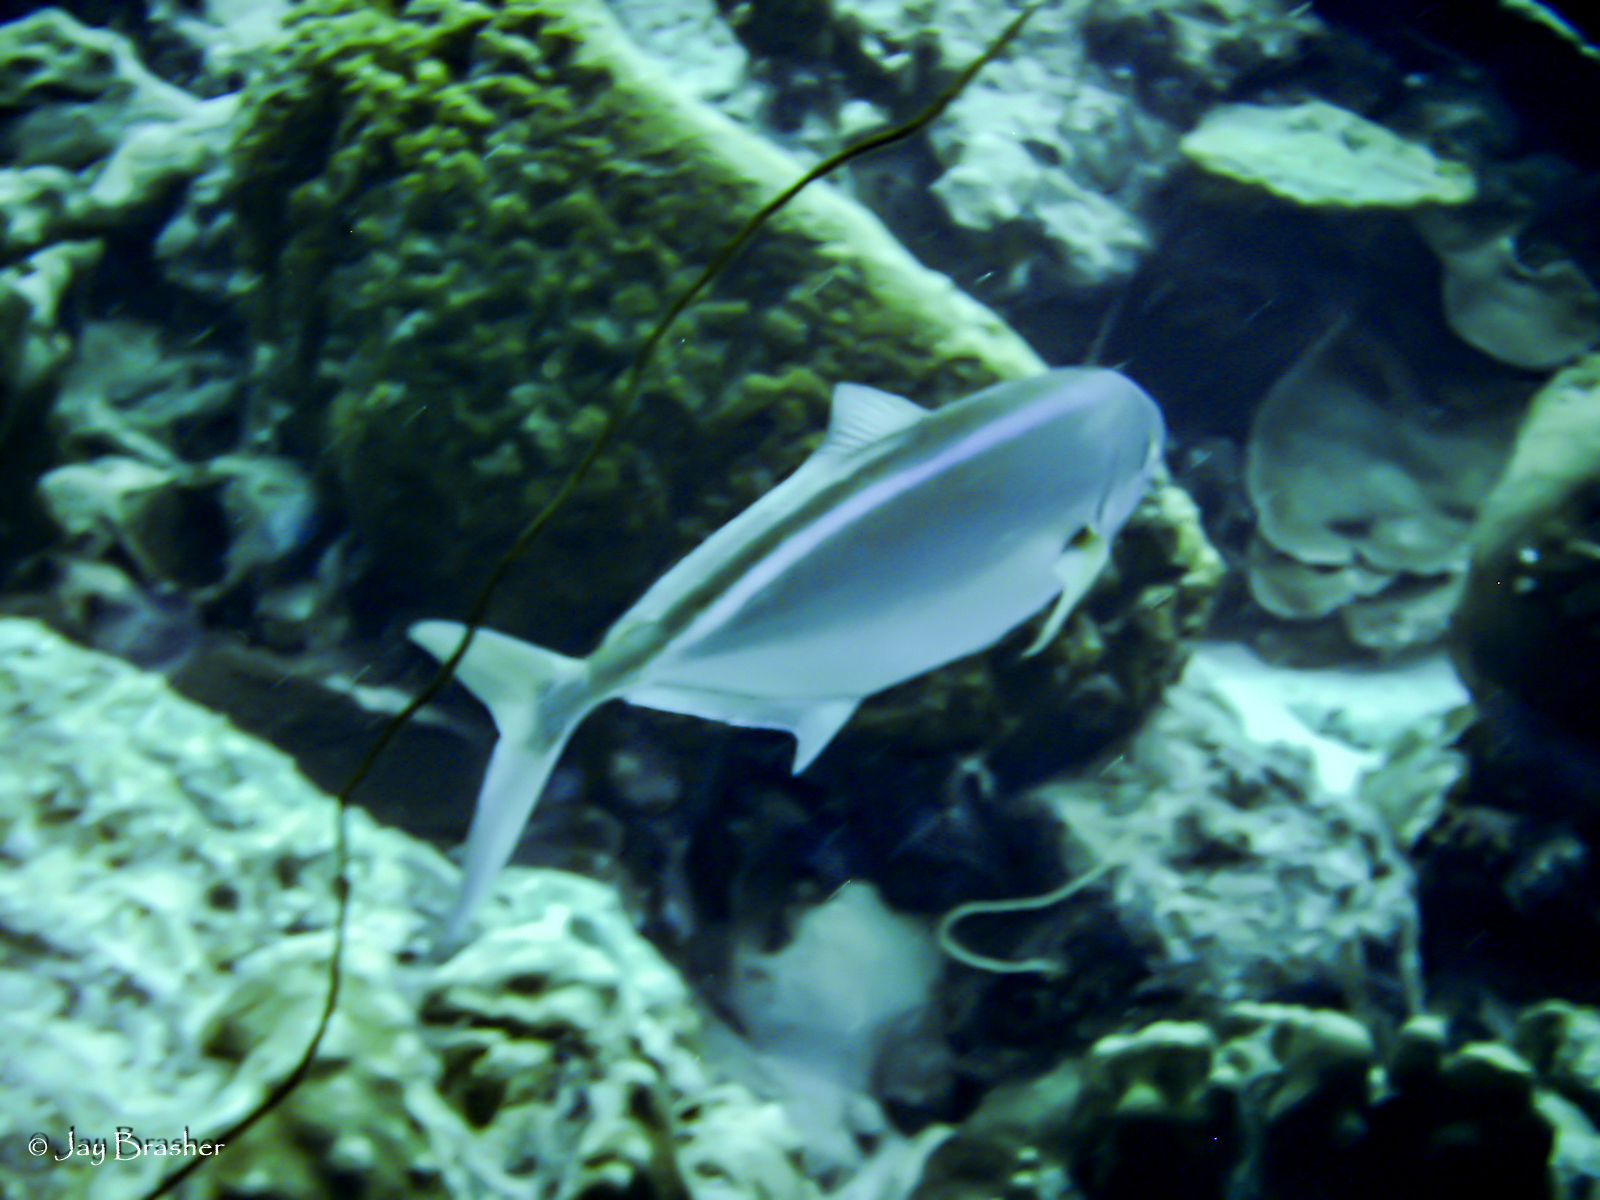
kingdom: Animalia
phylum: Chordata
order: Perciformes
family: Carangidae
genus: Caranx
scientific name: Caranx ruber
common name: Bar jack
